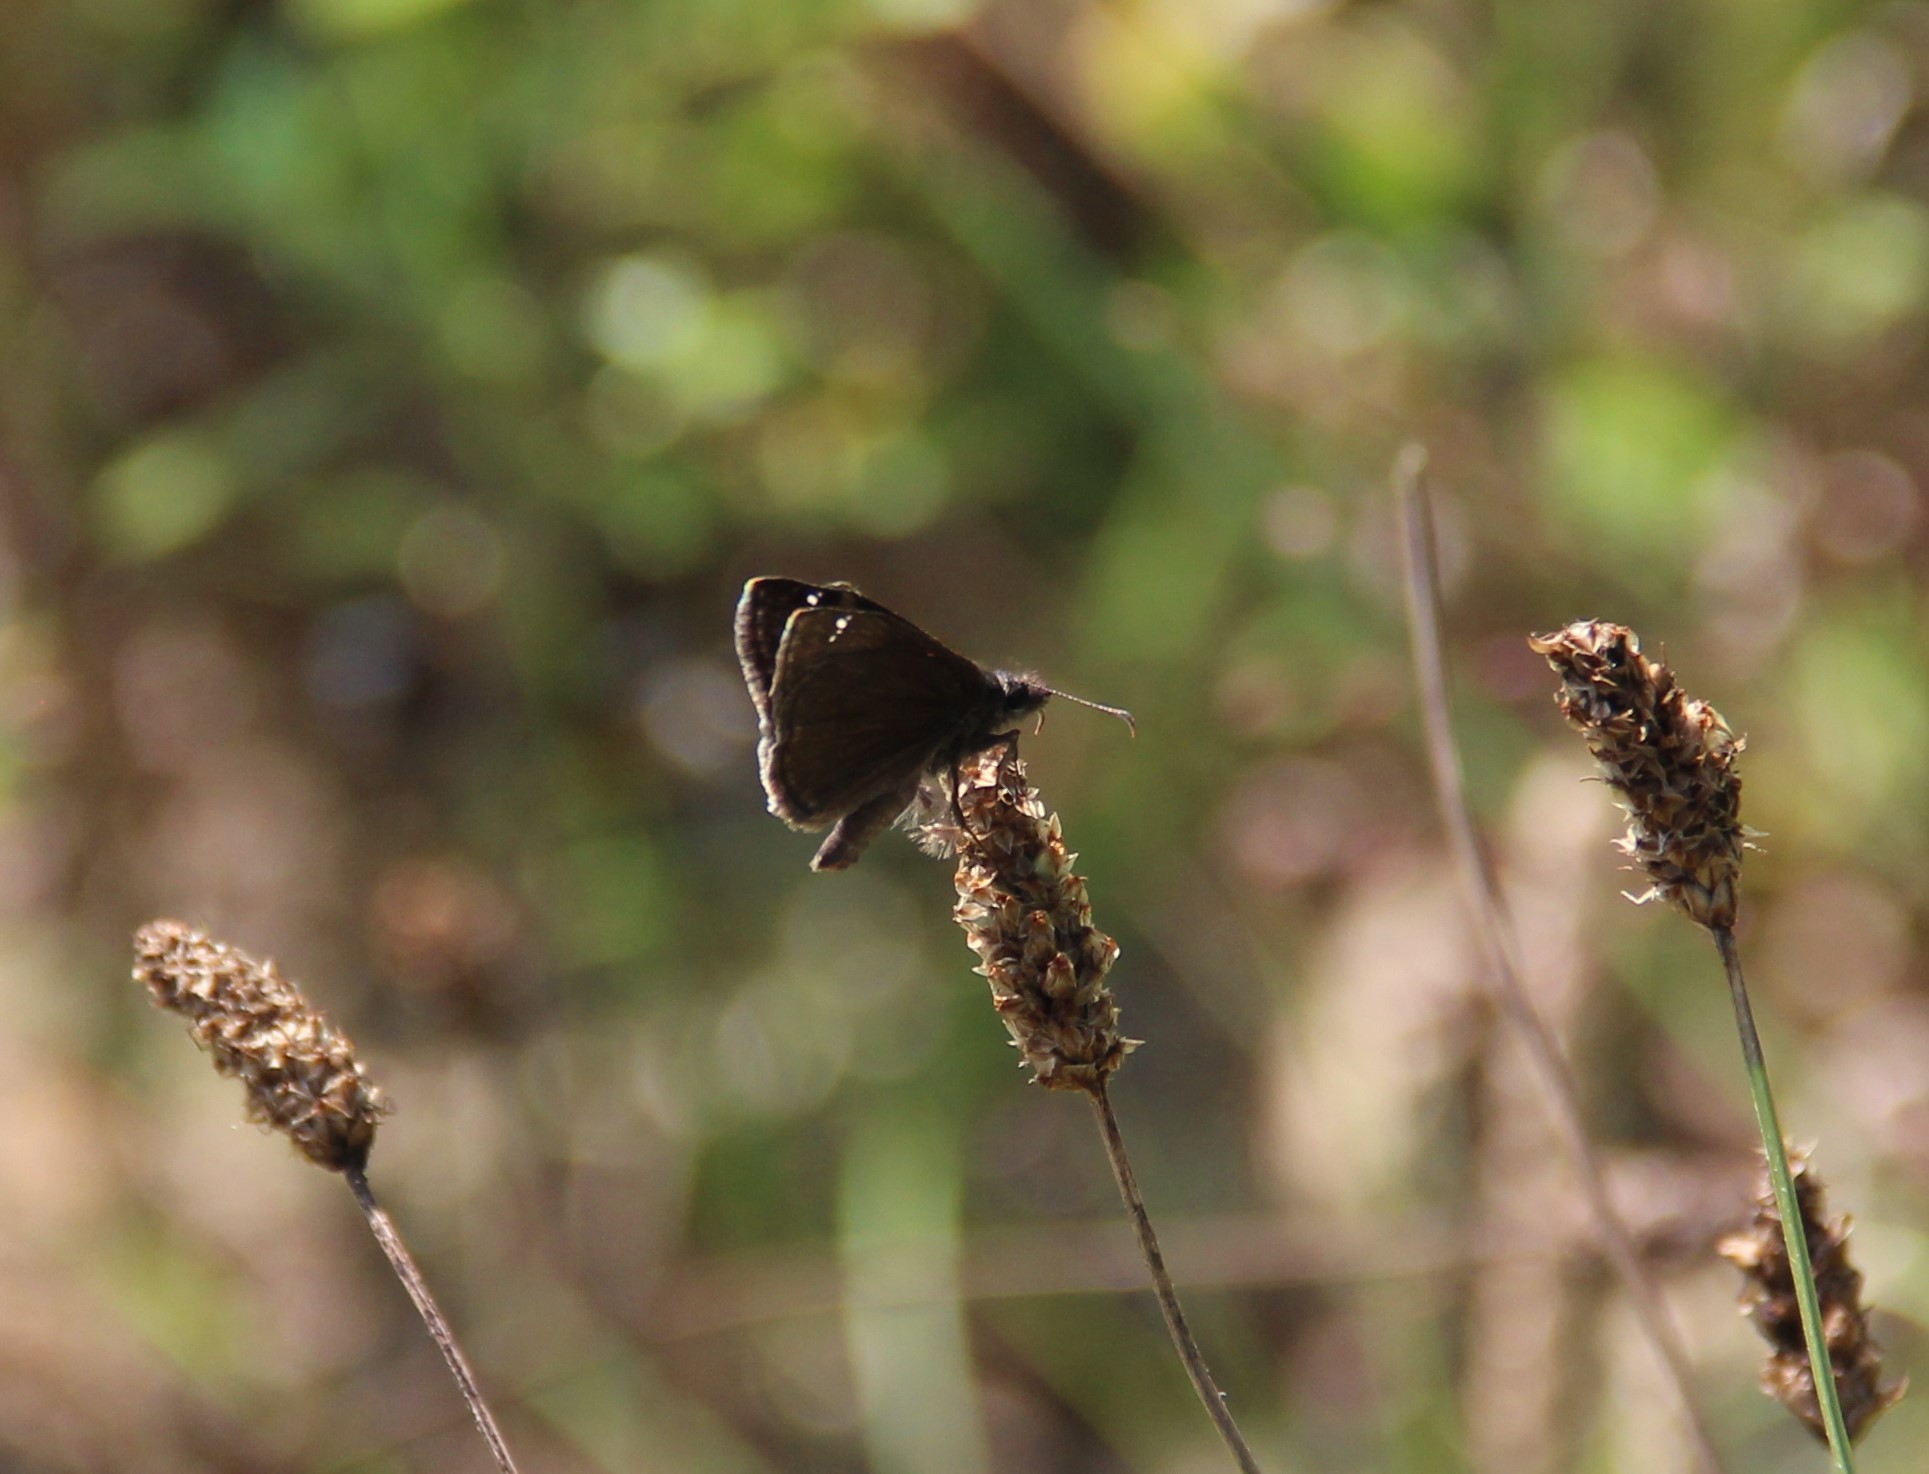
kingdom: Animalia
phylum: Arthropoda
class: Insecta
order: Lepidoptera
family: Hesperiidae
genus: Pholisora
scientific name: Pholisora catullus
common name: Common sootywing
